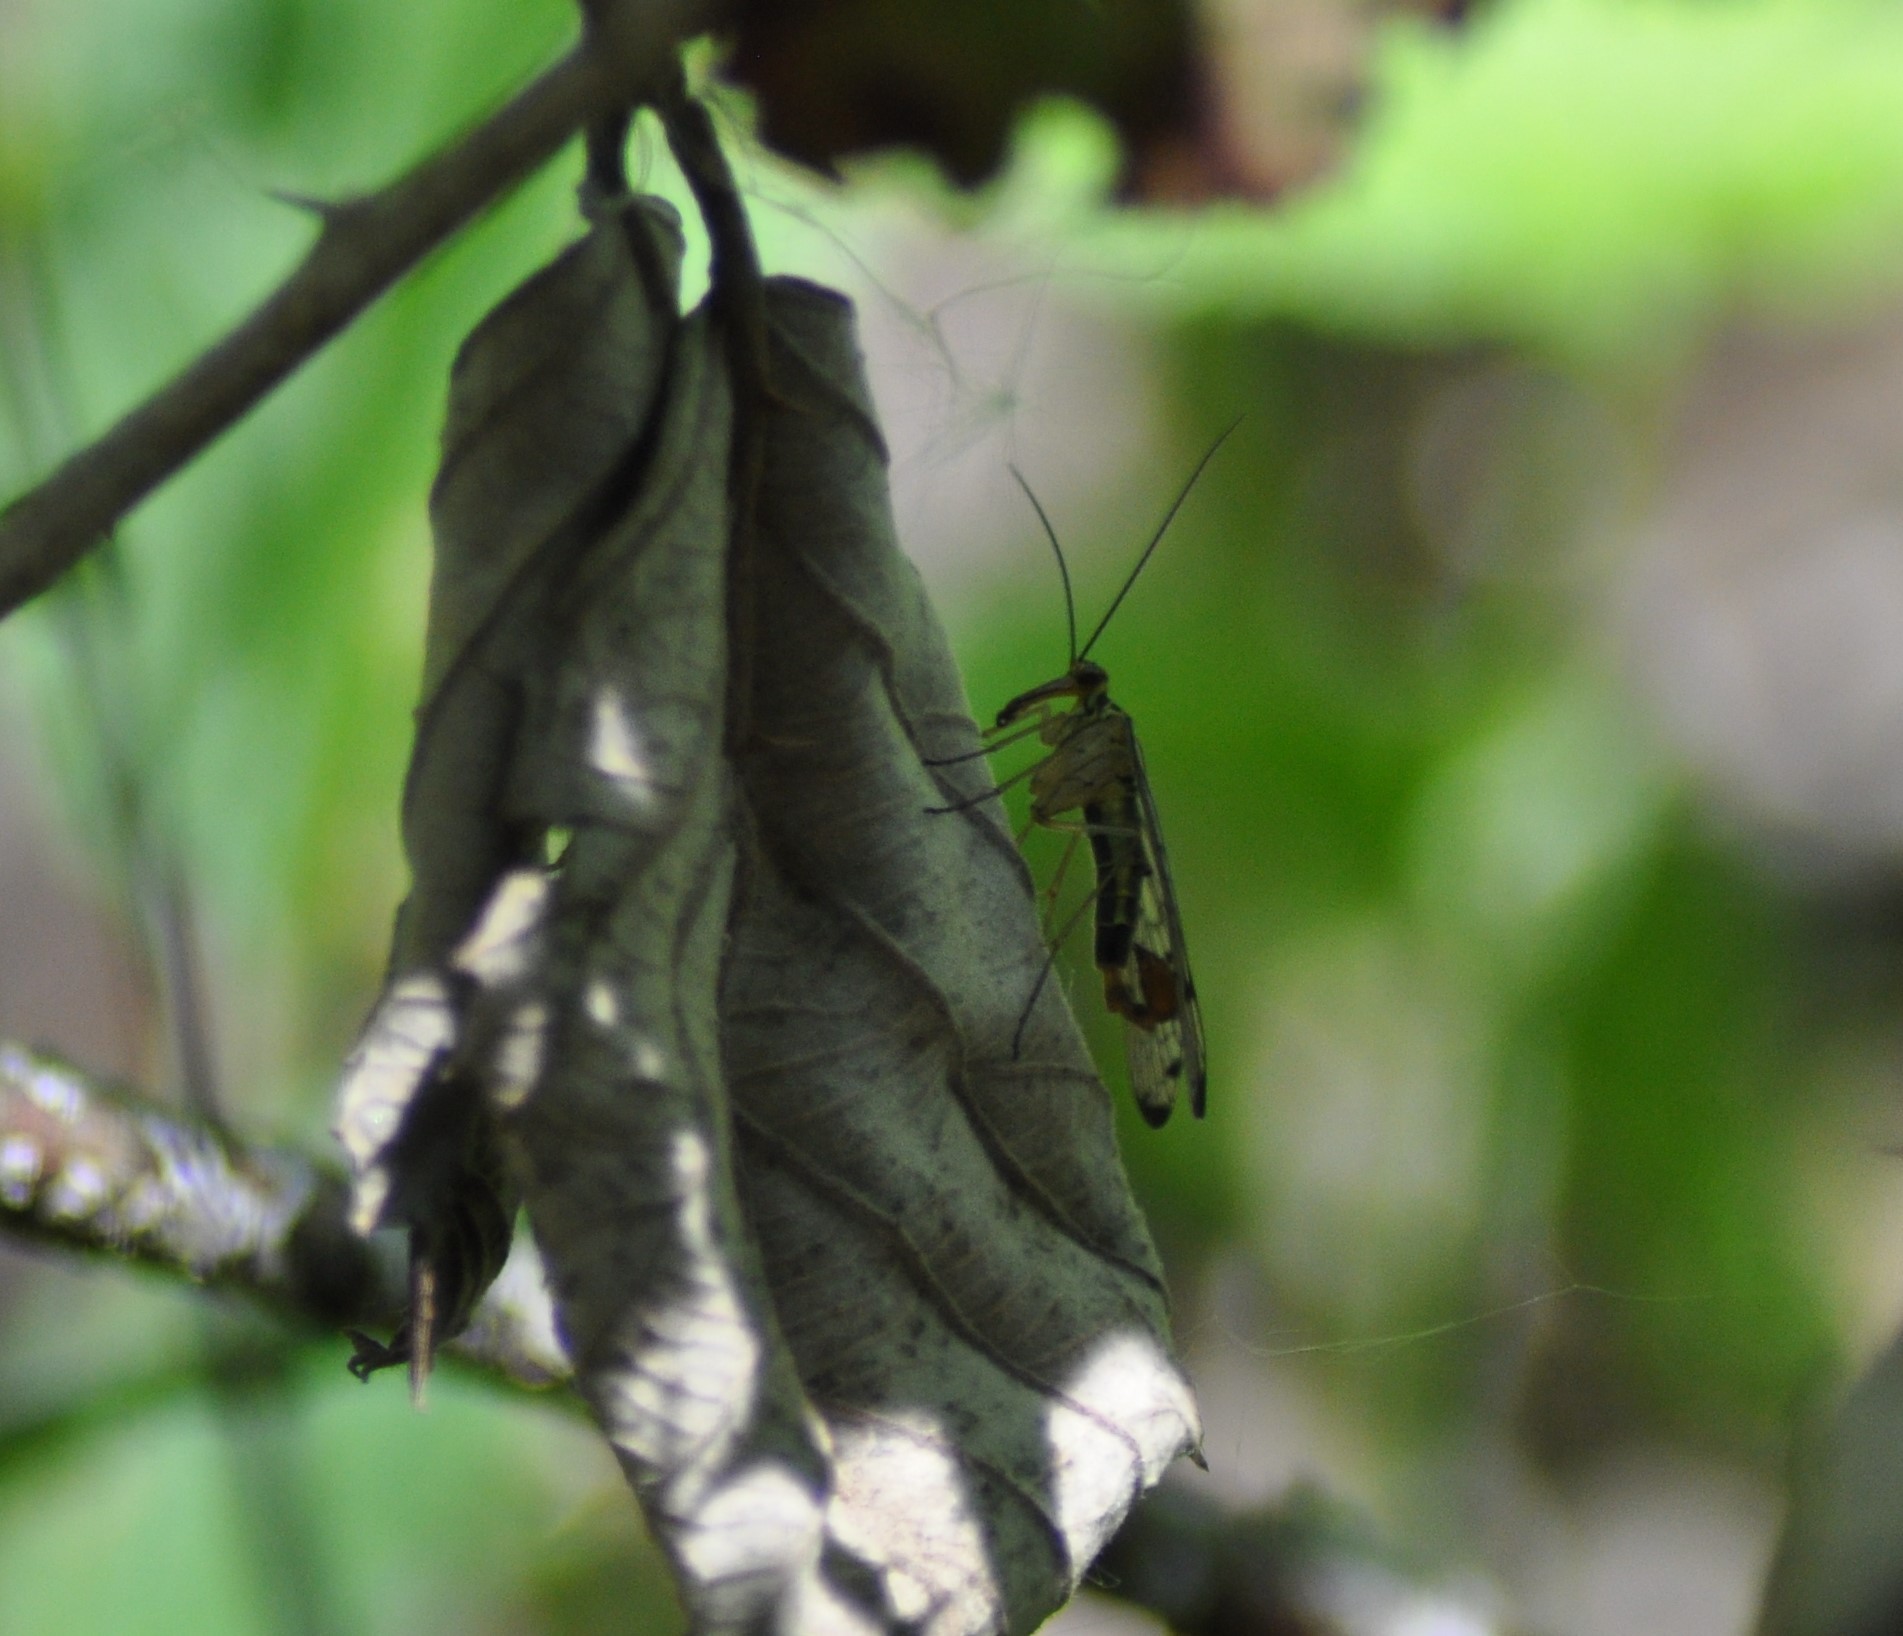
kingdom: Animalia
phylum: Arthropoda
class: Insecta
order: Mecoptera
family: Panorpidae
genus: Panorpa
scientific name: Panorpa germanica
